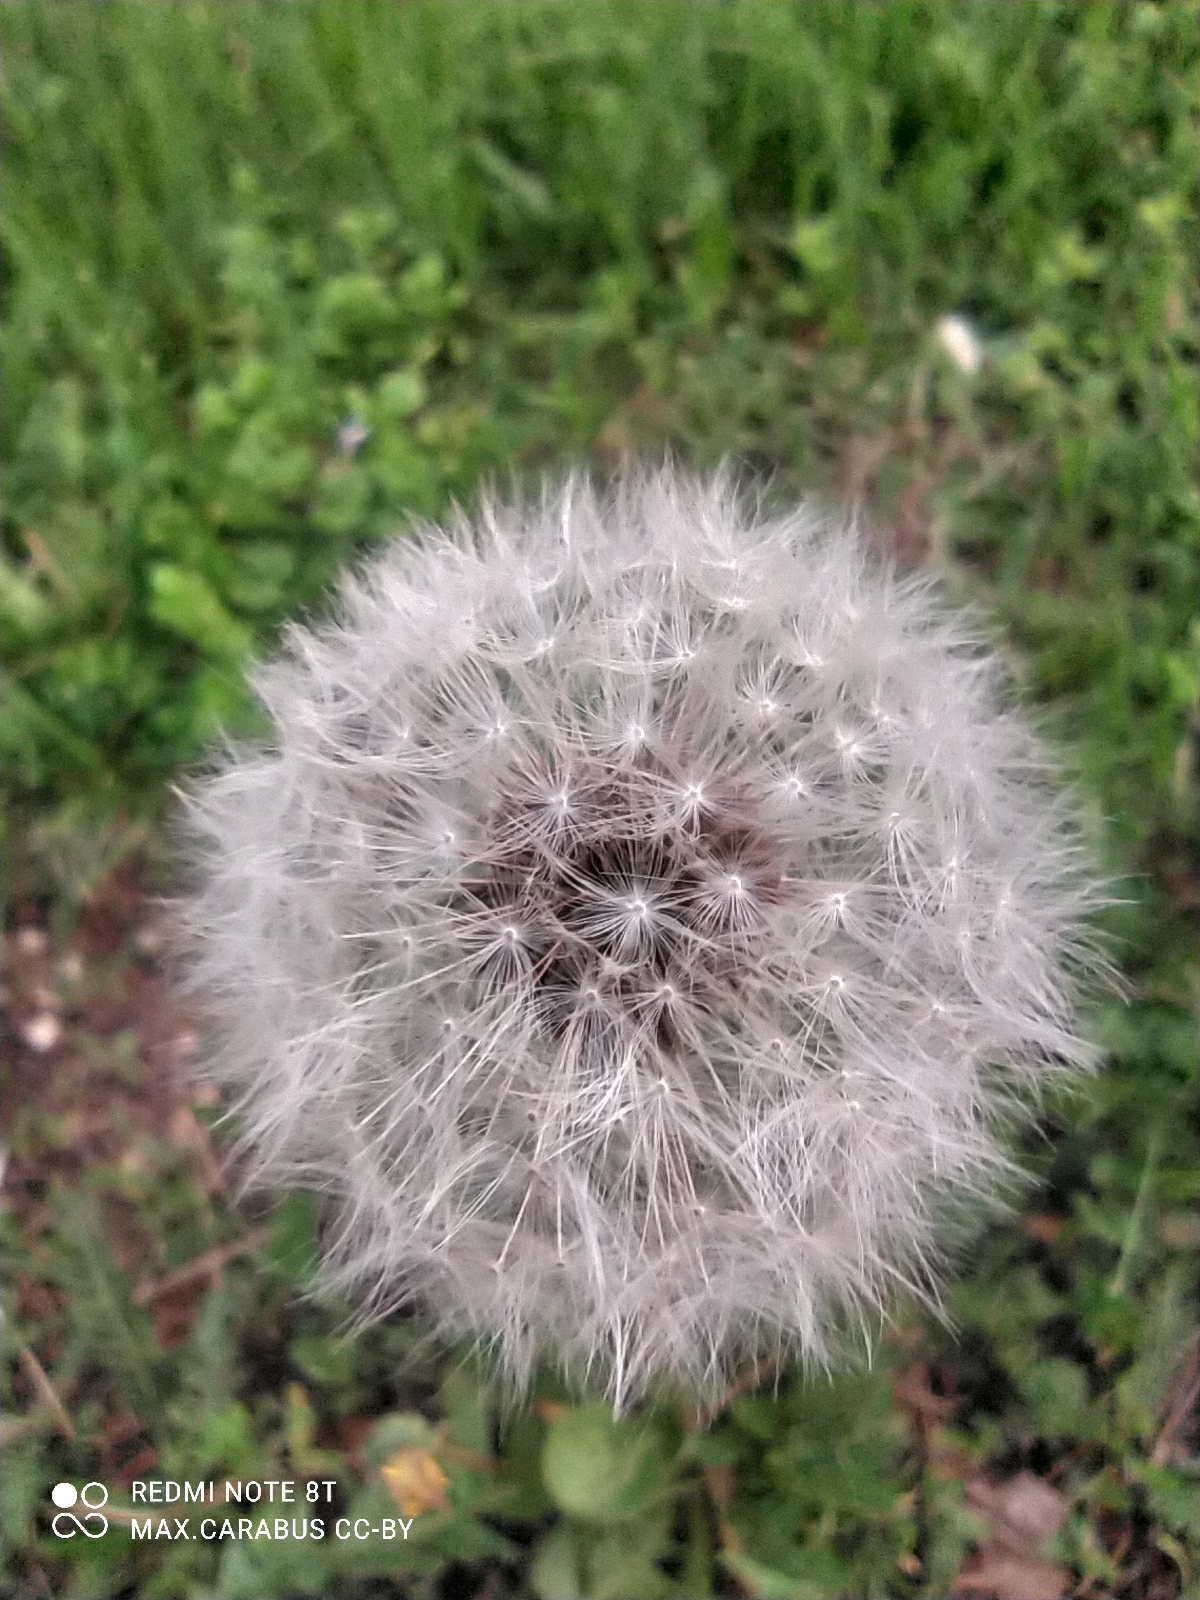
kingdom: Plantae
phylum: Tracheophyta
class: Magnoliopsida
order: Asterales
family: Asteraceae
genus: Taraxacum
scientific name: Taraxacum officinale
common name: Common dandelion
